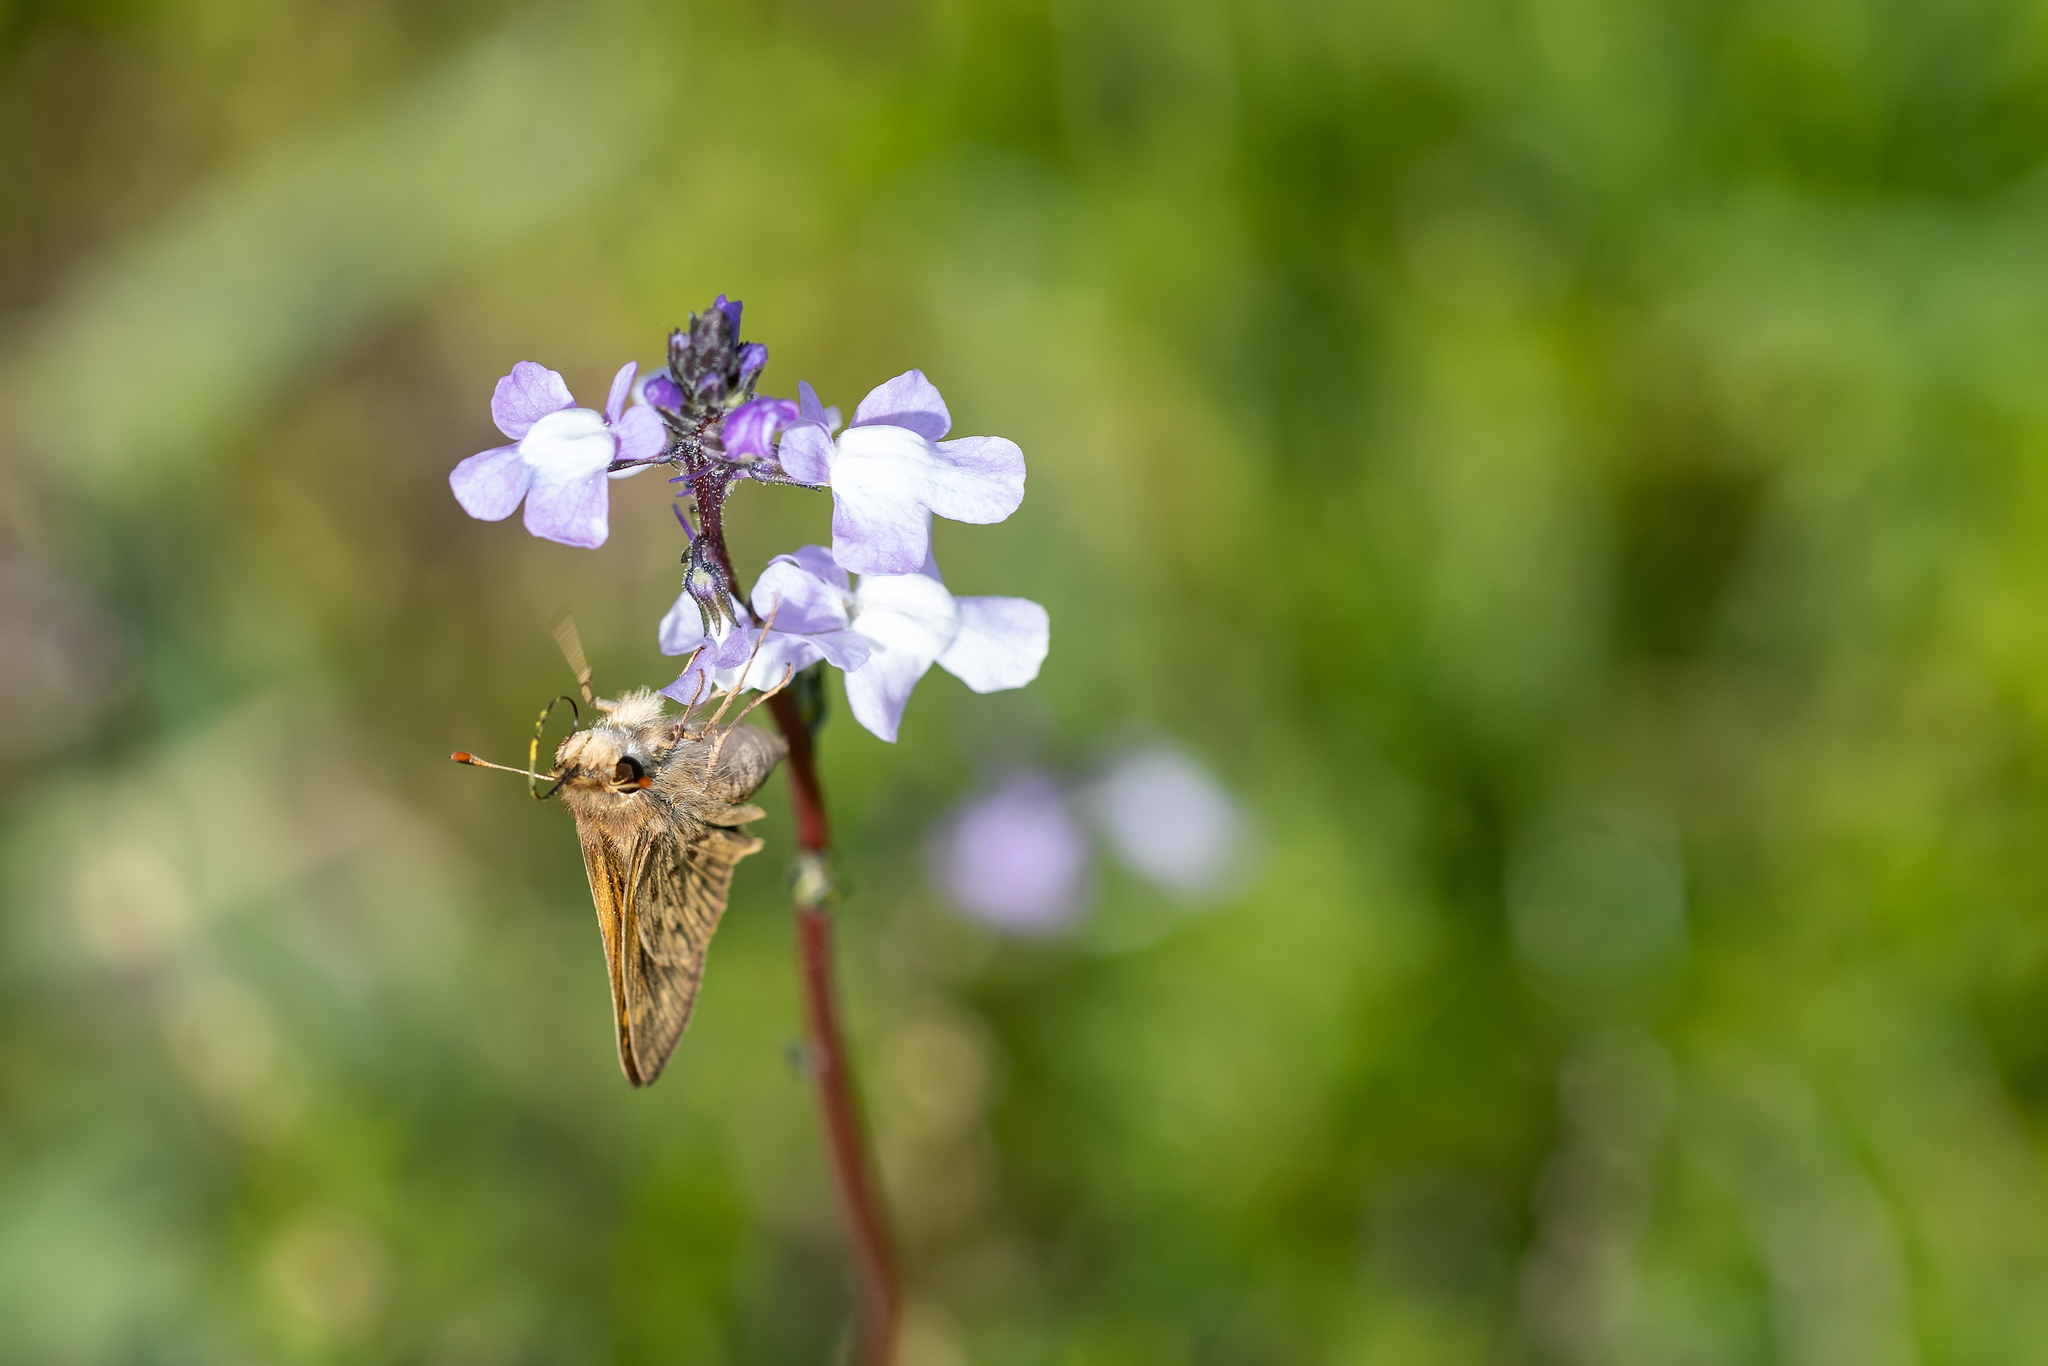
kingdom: Animalia
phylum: Arthropoda
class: Insecta
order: Lepidoptera
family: Hesperiidae
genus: Hylephila
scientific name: Hylephila phyleus
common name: Fiery skipper
